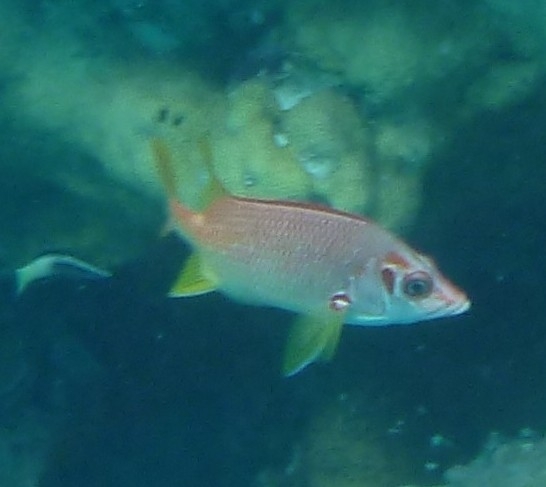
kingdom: Animalia
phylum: Chordata
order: Beryciformes
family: Holocentridae
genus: Sargocentron
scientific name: Sargocentron spiniferum
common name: Giant squirrelfish
